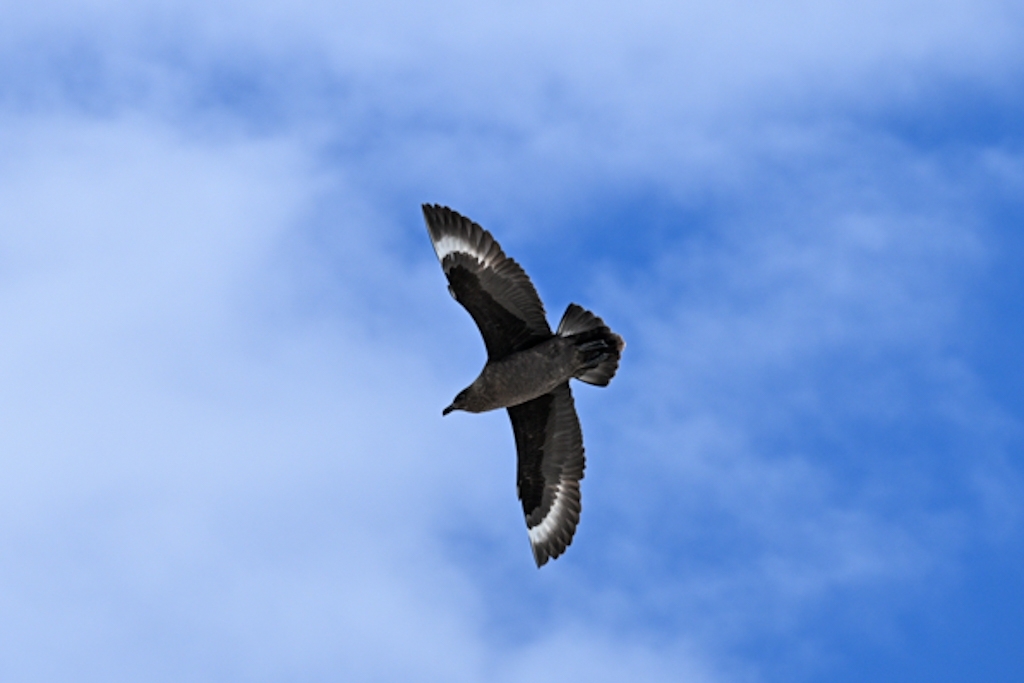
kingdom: Animalia
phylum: Chordata
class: Aves
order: Charadriiformes
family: Stercorariidae
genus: Stercorarius
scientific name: Stercorarius maccormicki
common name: South polar skua
